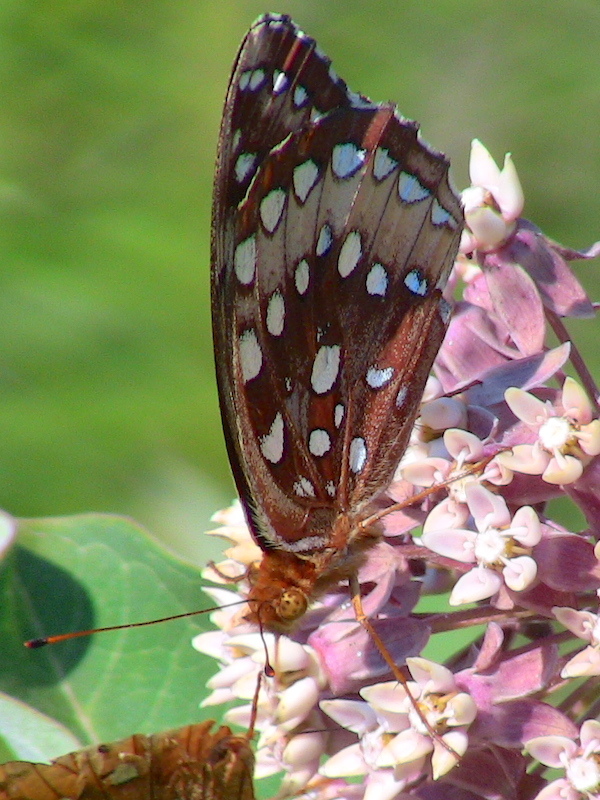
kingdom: Animalia
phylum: Arthropoda
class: Insecta
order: Lepidoptera
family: Nymphalidae
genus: Speyeria
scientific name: Speyeria cybele
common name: Great spangled fritillary
